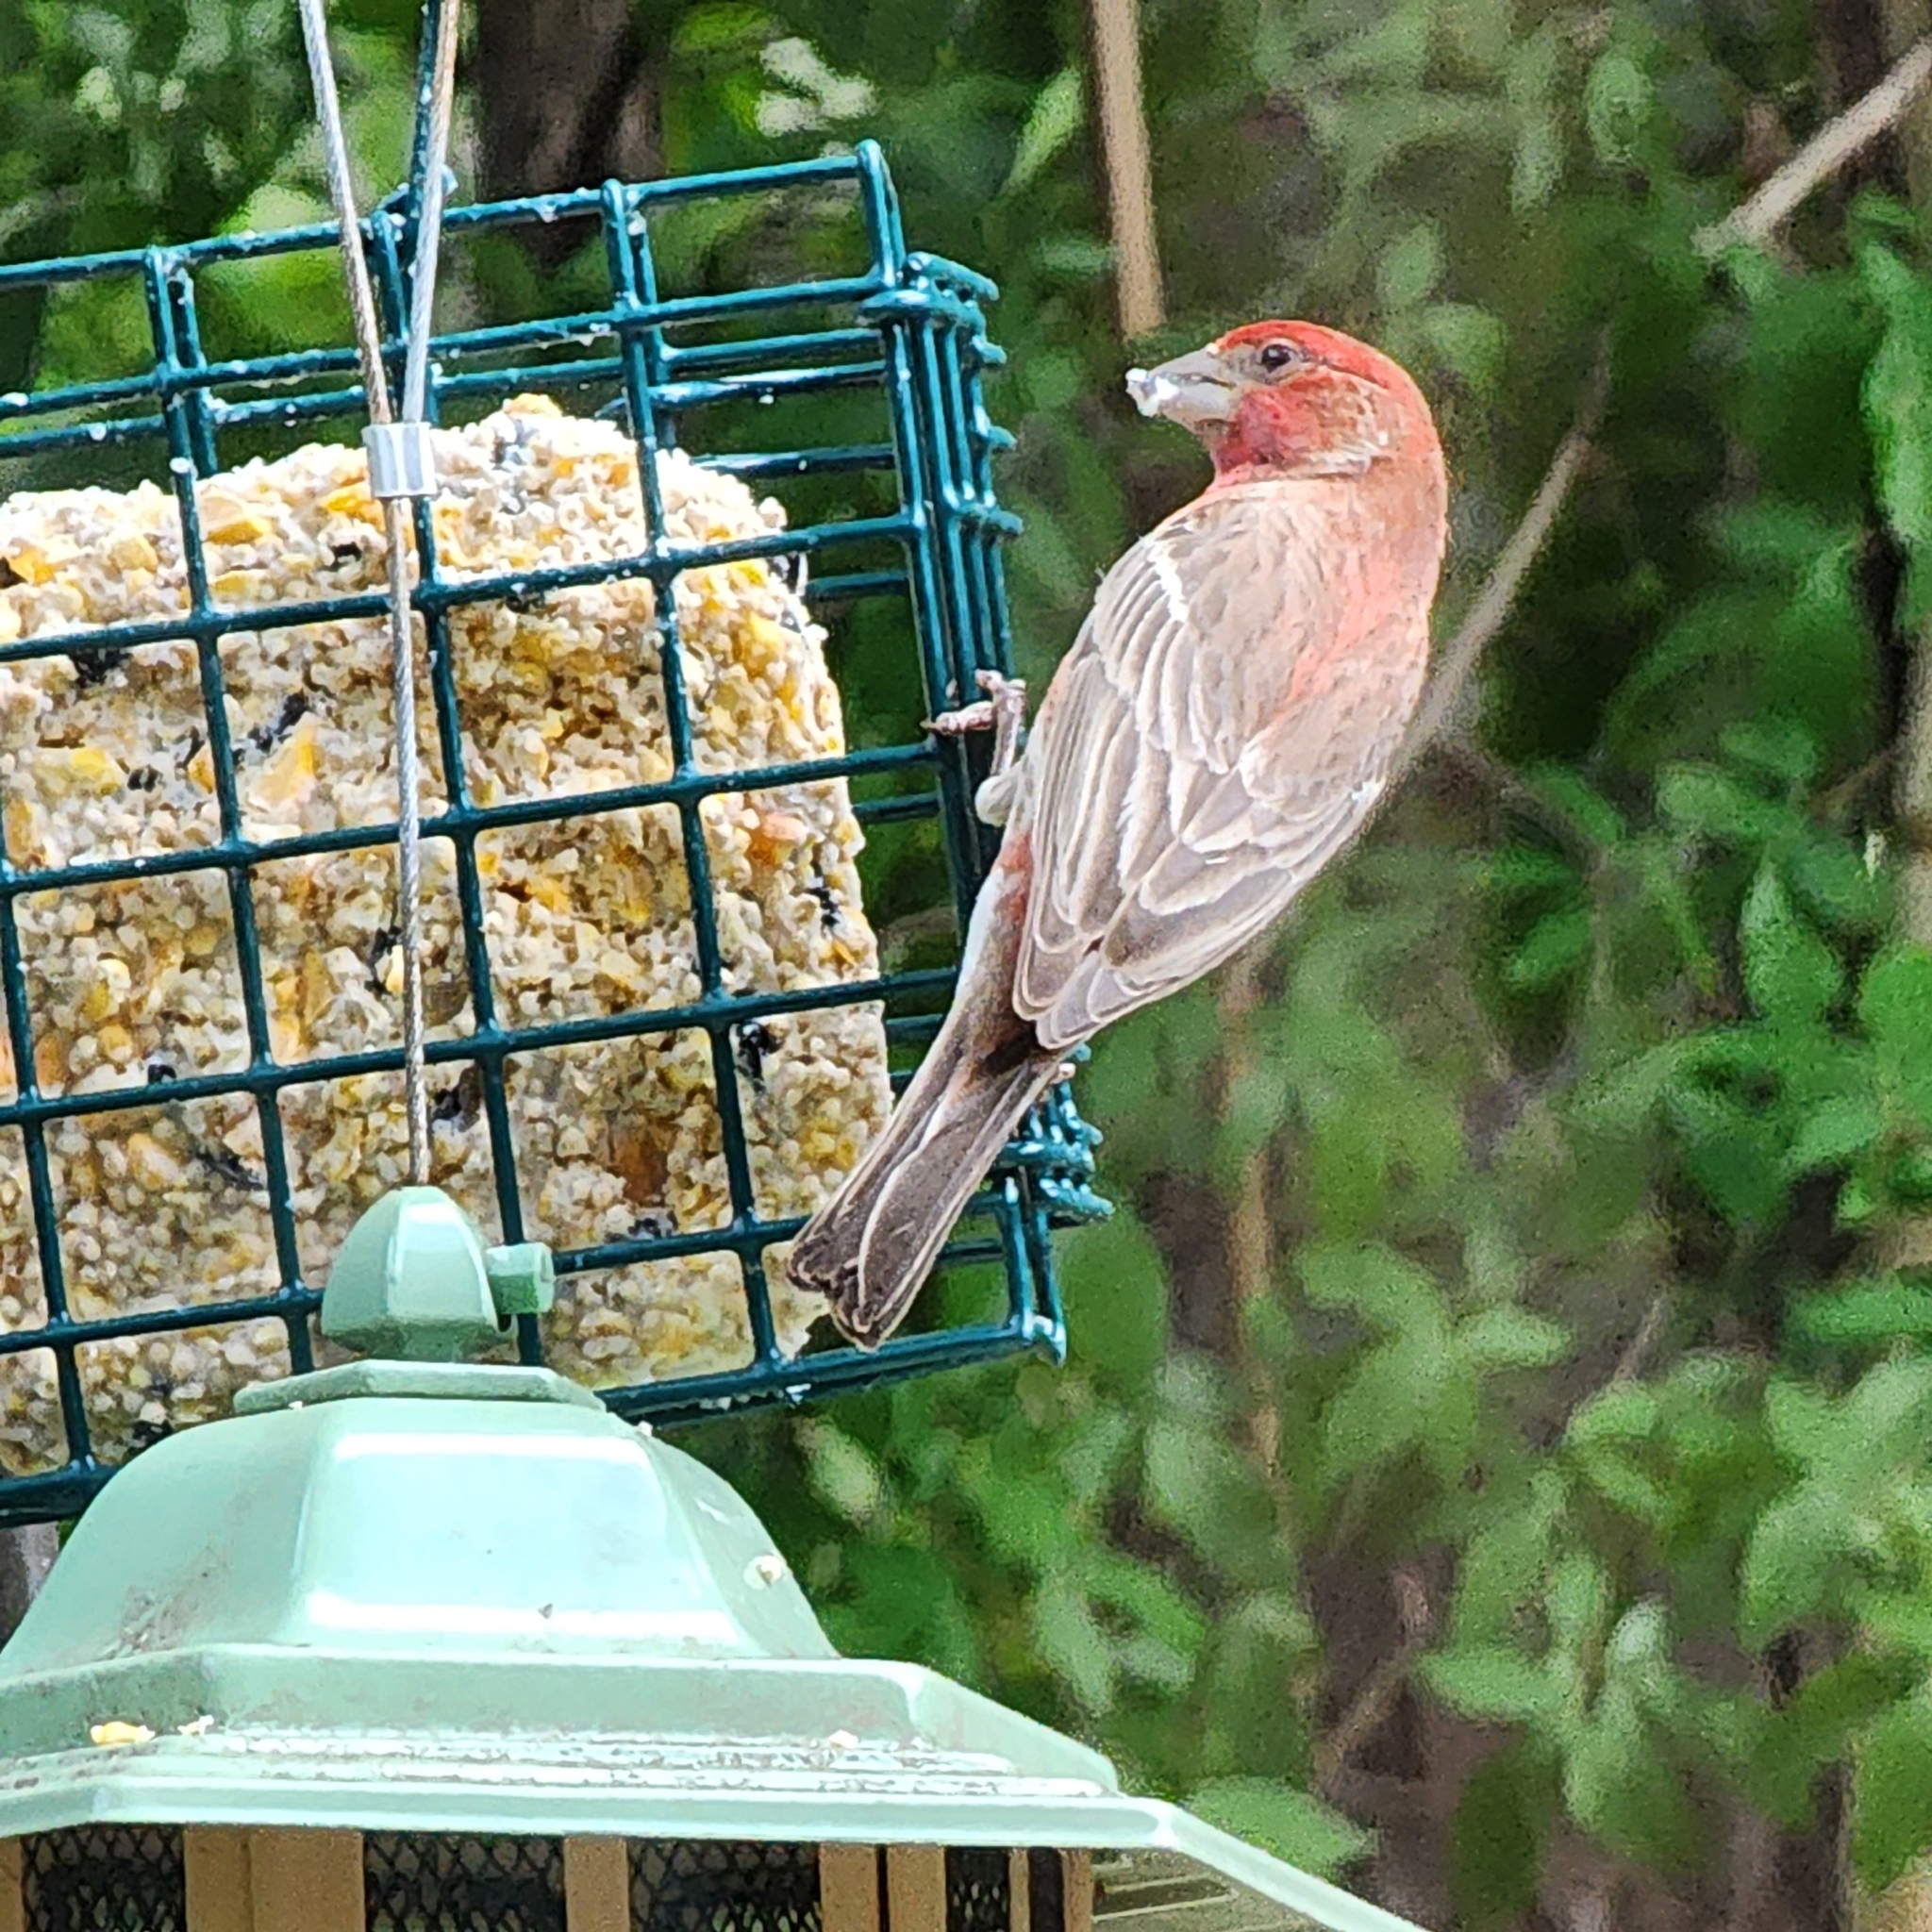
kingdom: Animalia
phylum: Chordata
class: Aves
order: Passeriformes
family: Fringillidae
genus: Haemorhous
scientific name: Haemorhous mexicanus
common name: House finch
